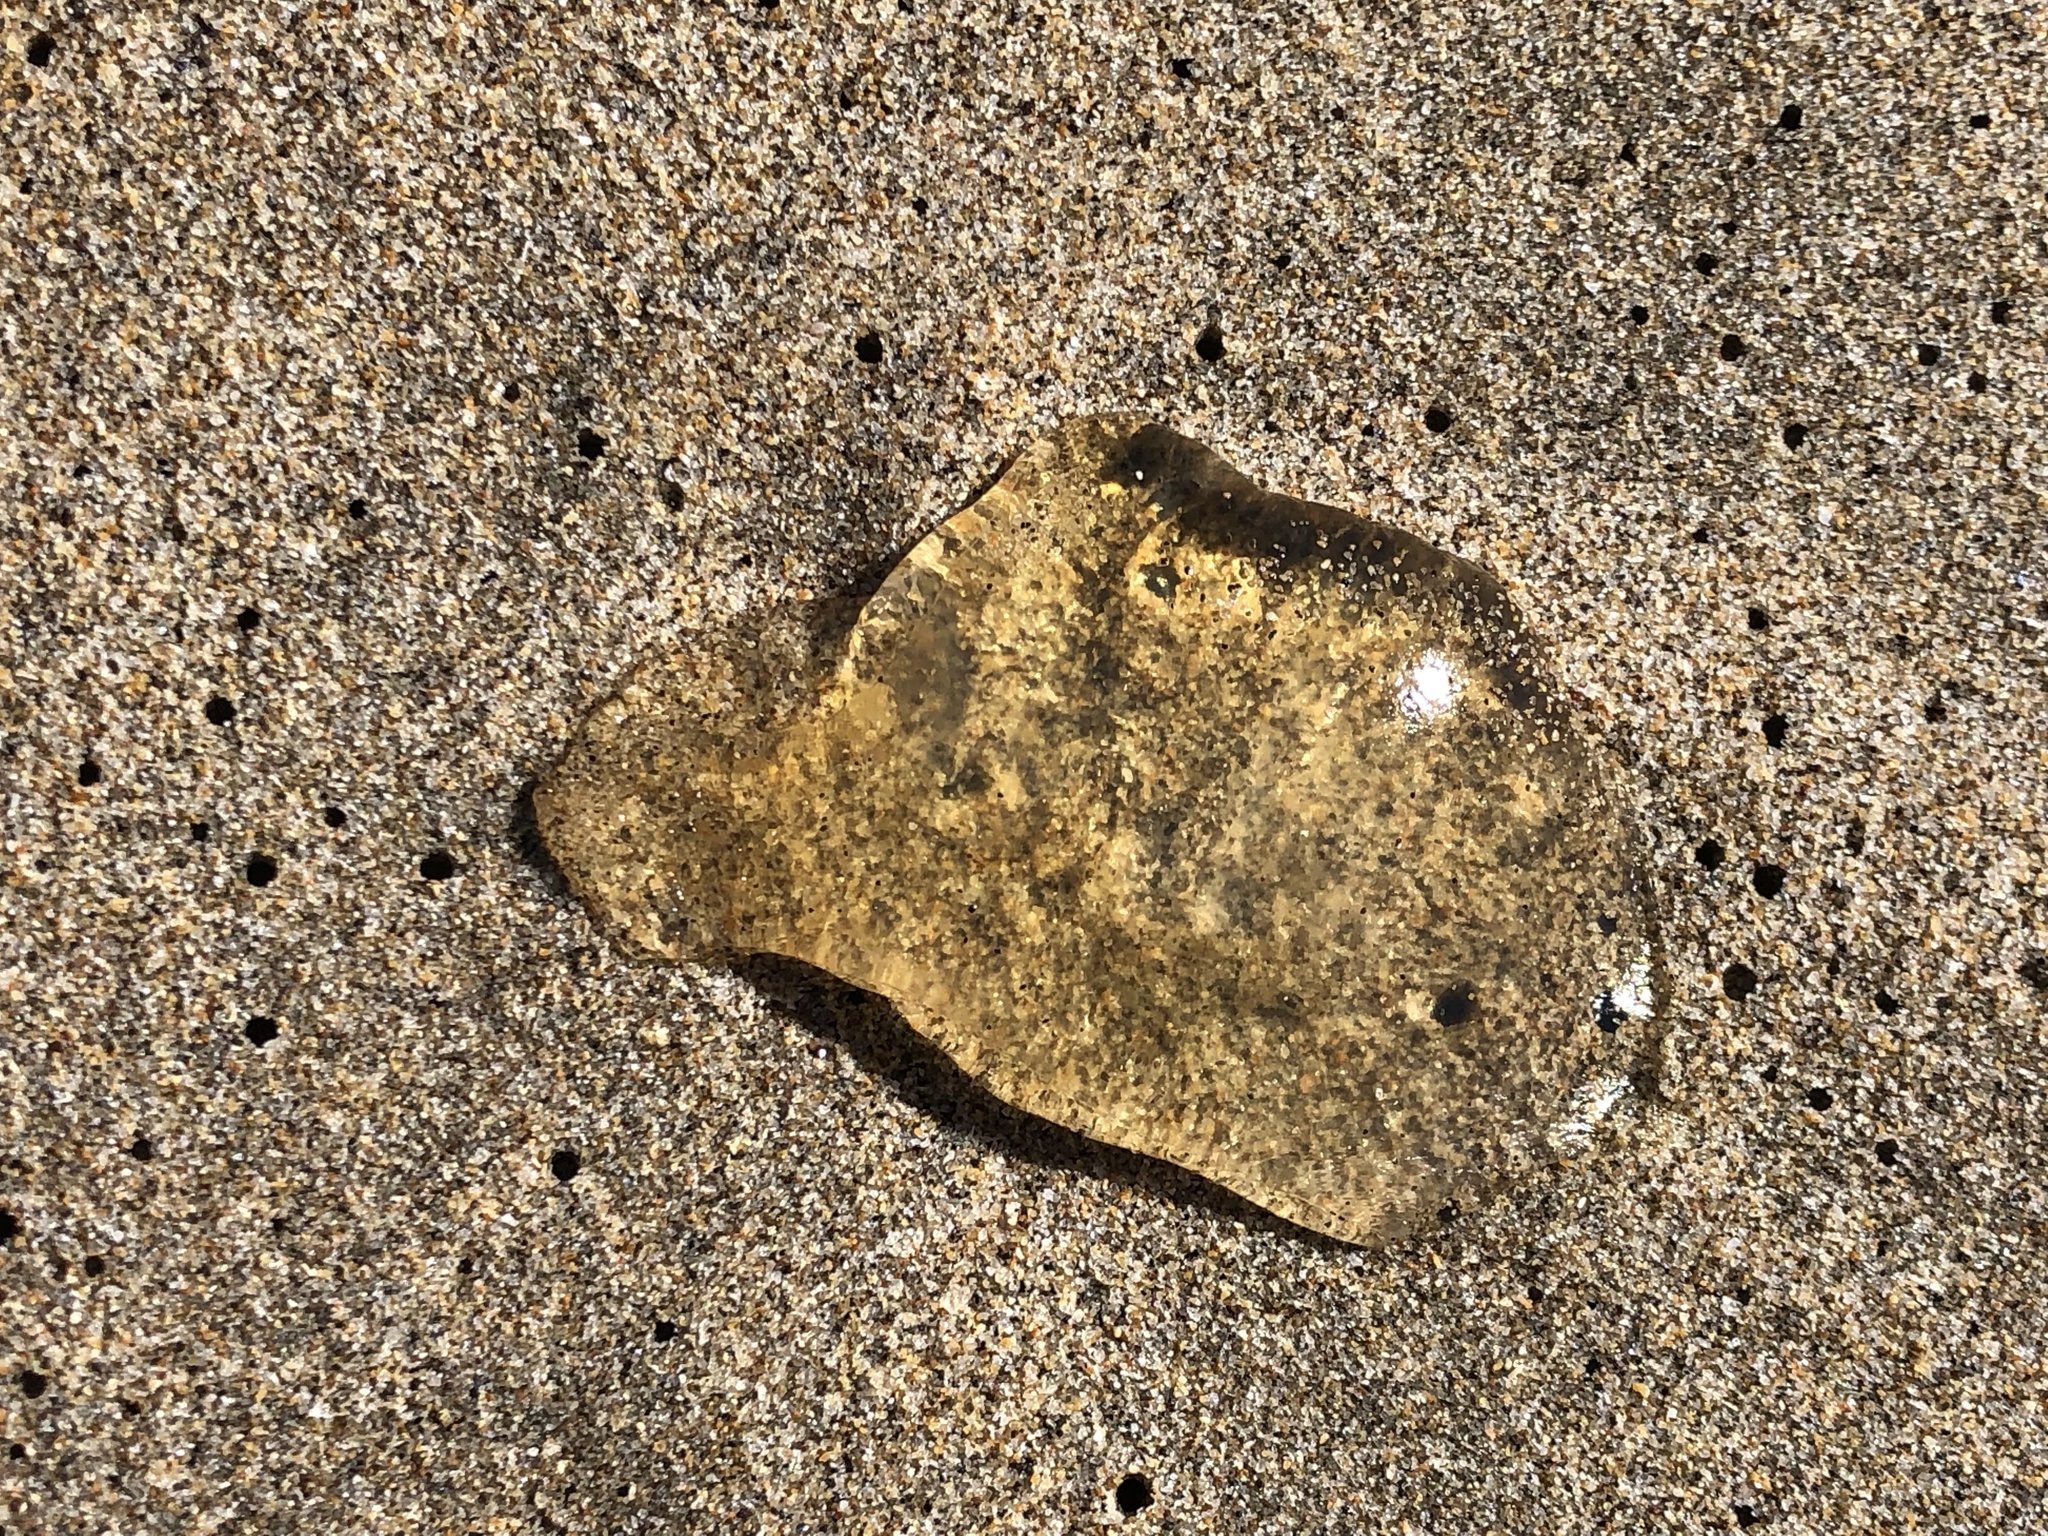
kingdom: Animalia
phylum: Cnidaria
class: Scyphozoa
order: Semaeostomeae
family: Pelagiidae
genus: Chrysaora
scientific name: Chrysaora fuscescens
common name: Sea nettle
